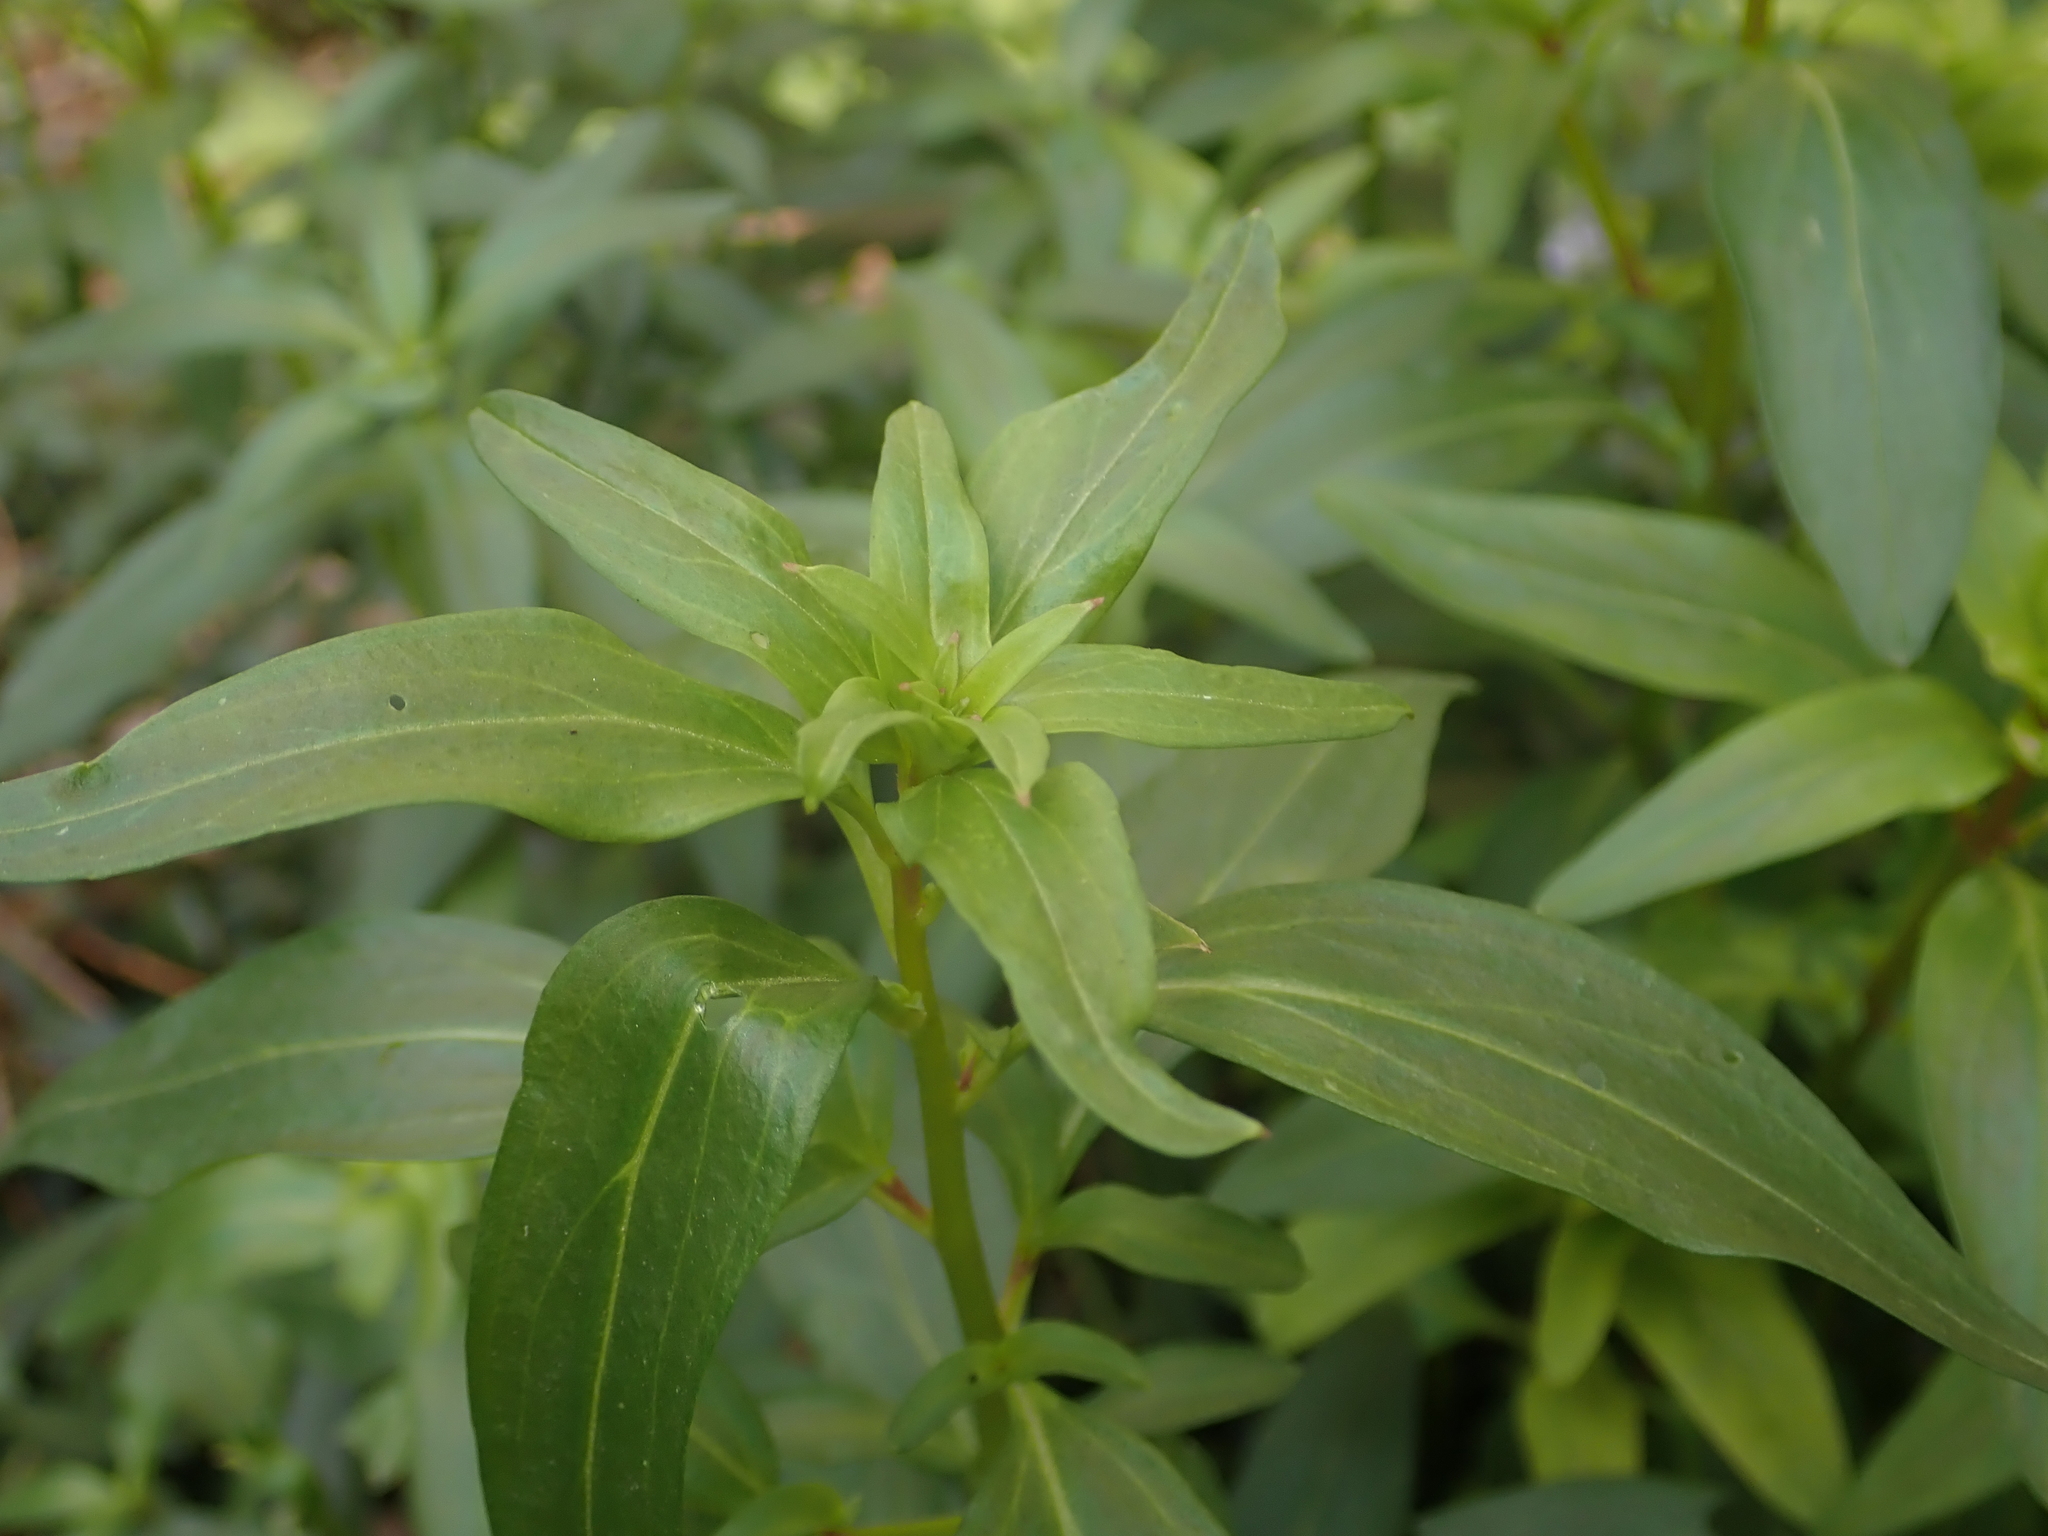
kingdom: Plantae
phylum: Tracheophyta
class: Magnoliopsida
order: Lamiales
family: Plantaginaceae
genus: Antirrhinum
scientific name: Antirrhinum majus
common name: Snapdragon
